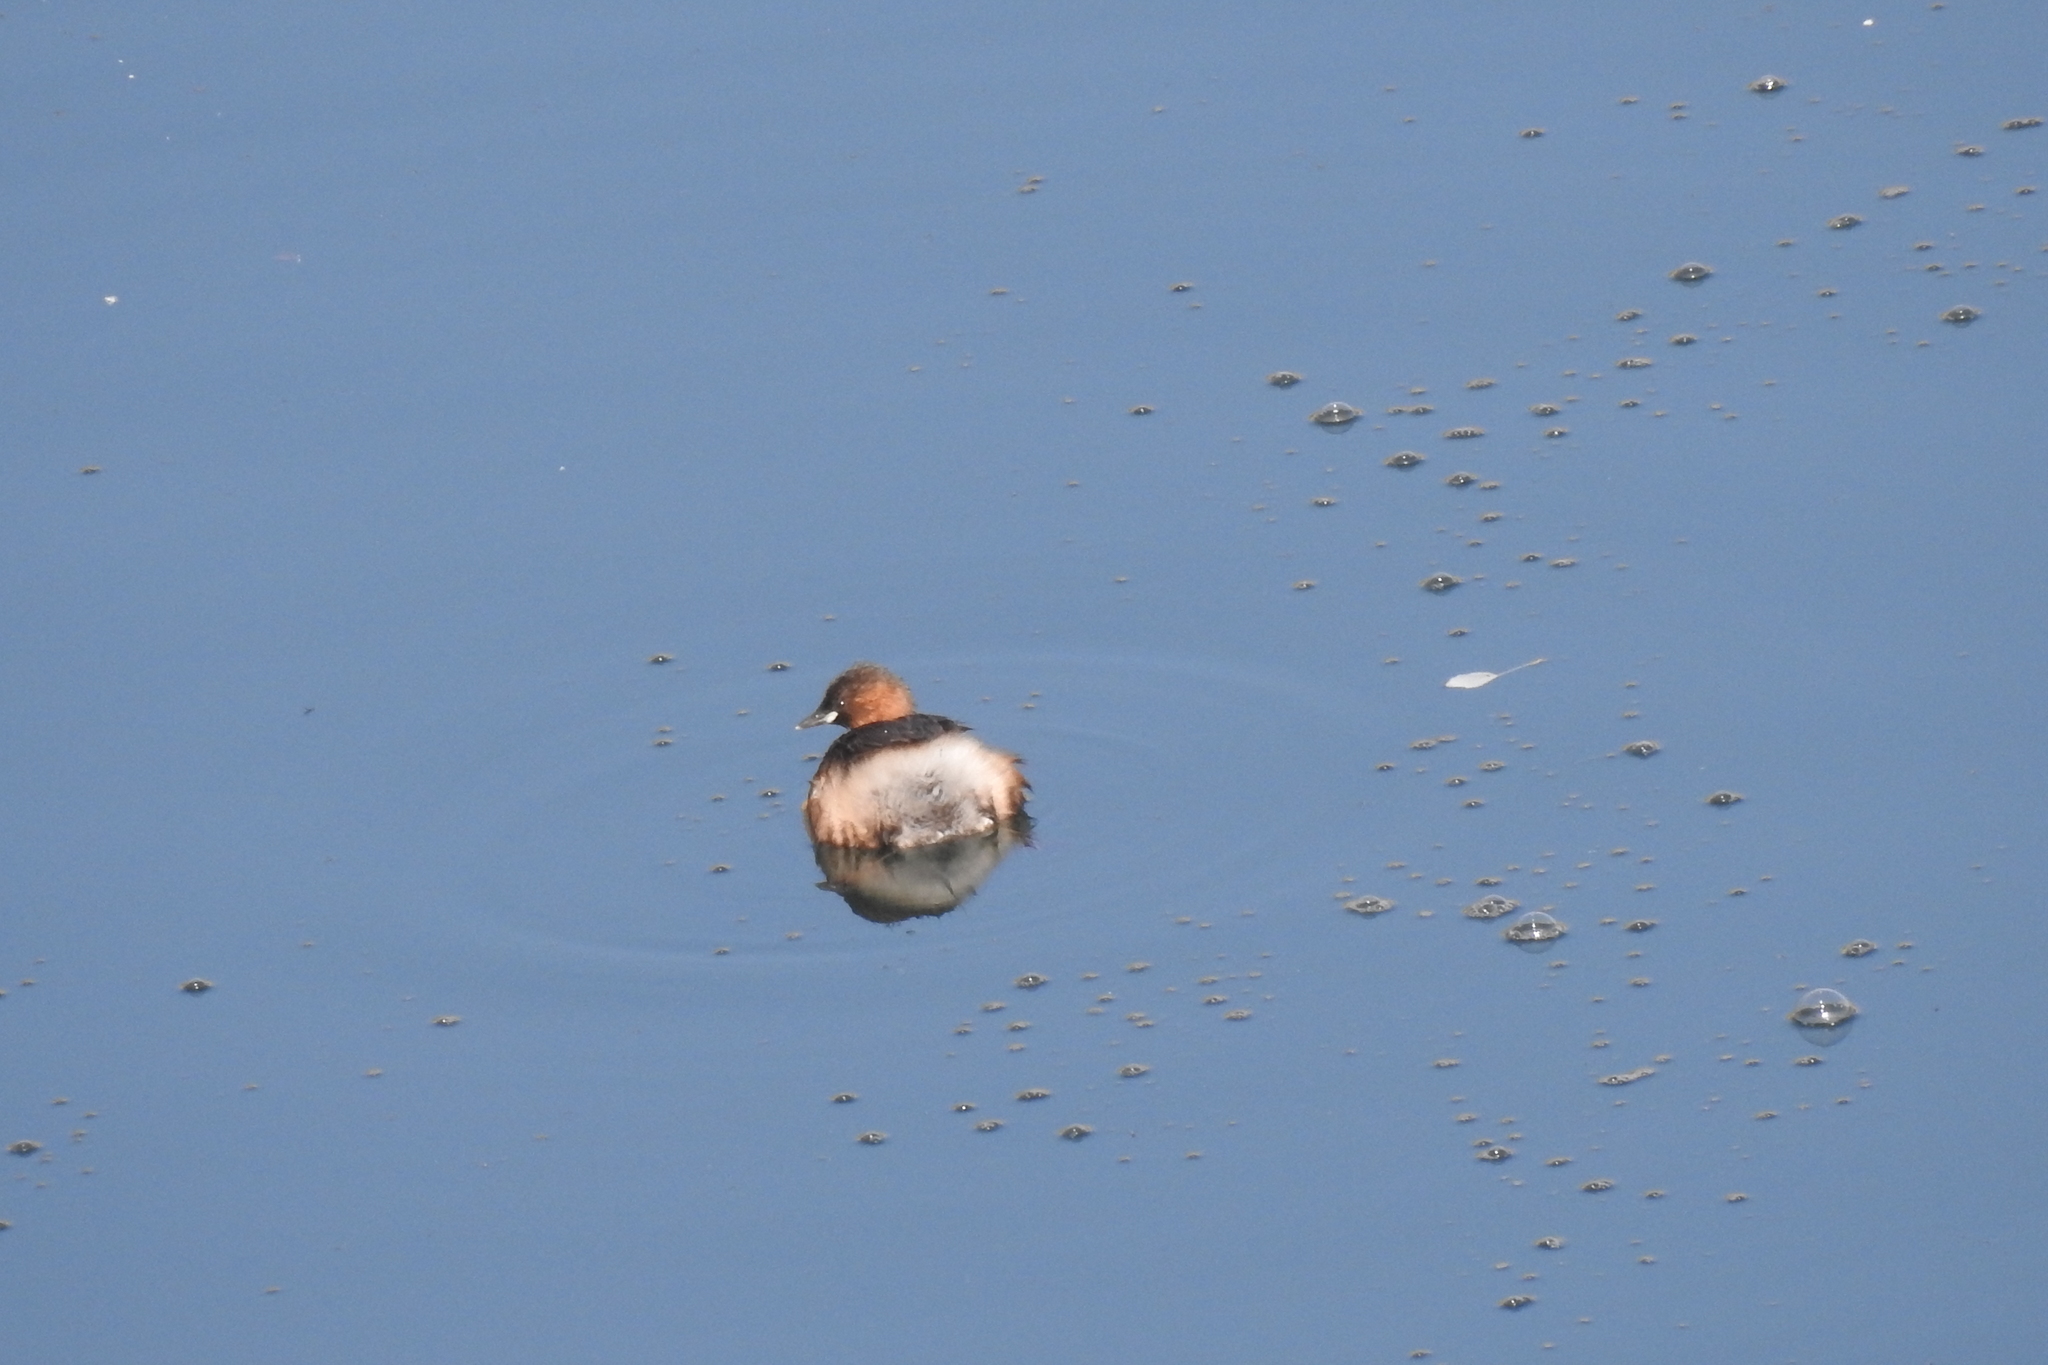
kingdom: Animalia
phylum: Chordata
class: Aves
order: Podicipediformes
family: Podicipedidae
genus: Tachybaptus
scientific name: Tachybaptus ruficollis
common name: Little grebe
